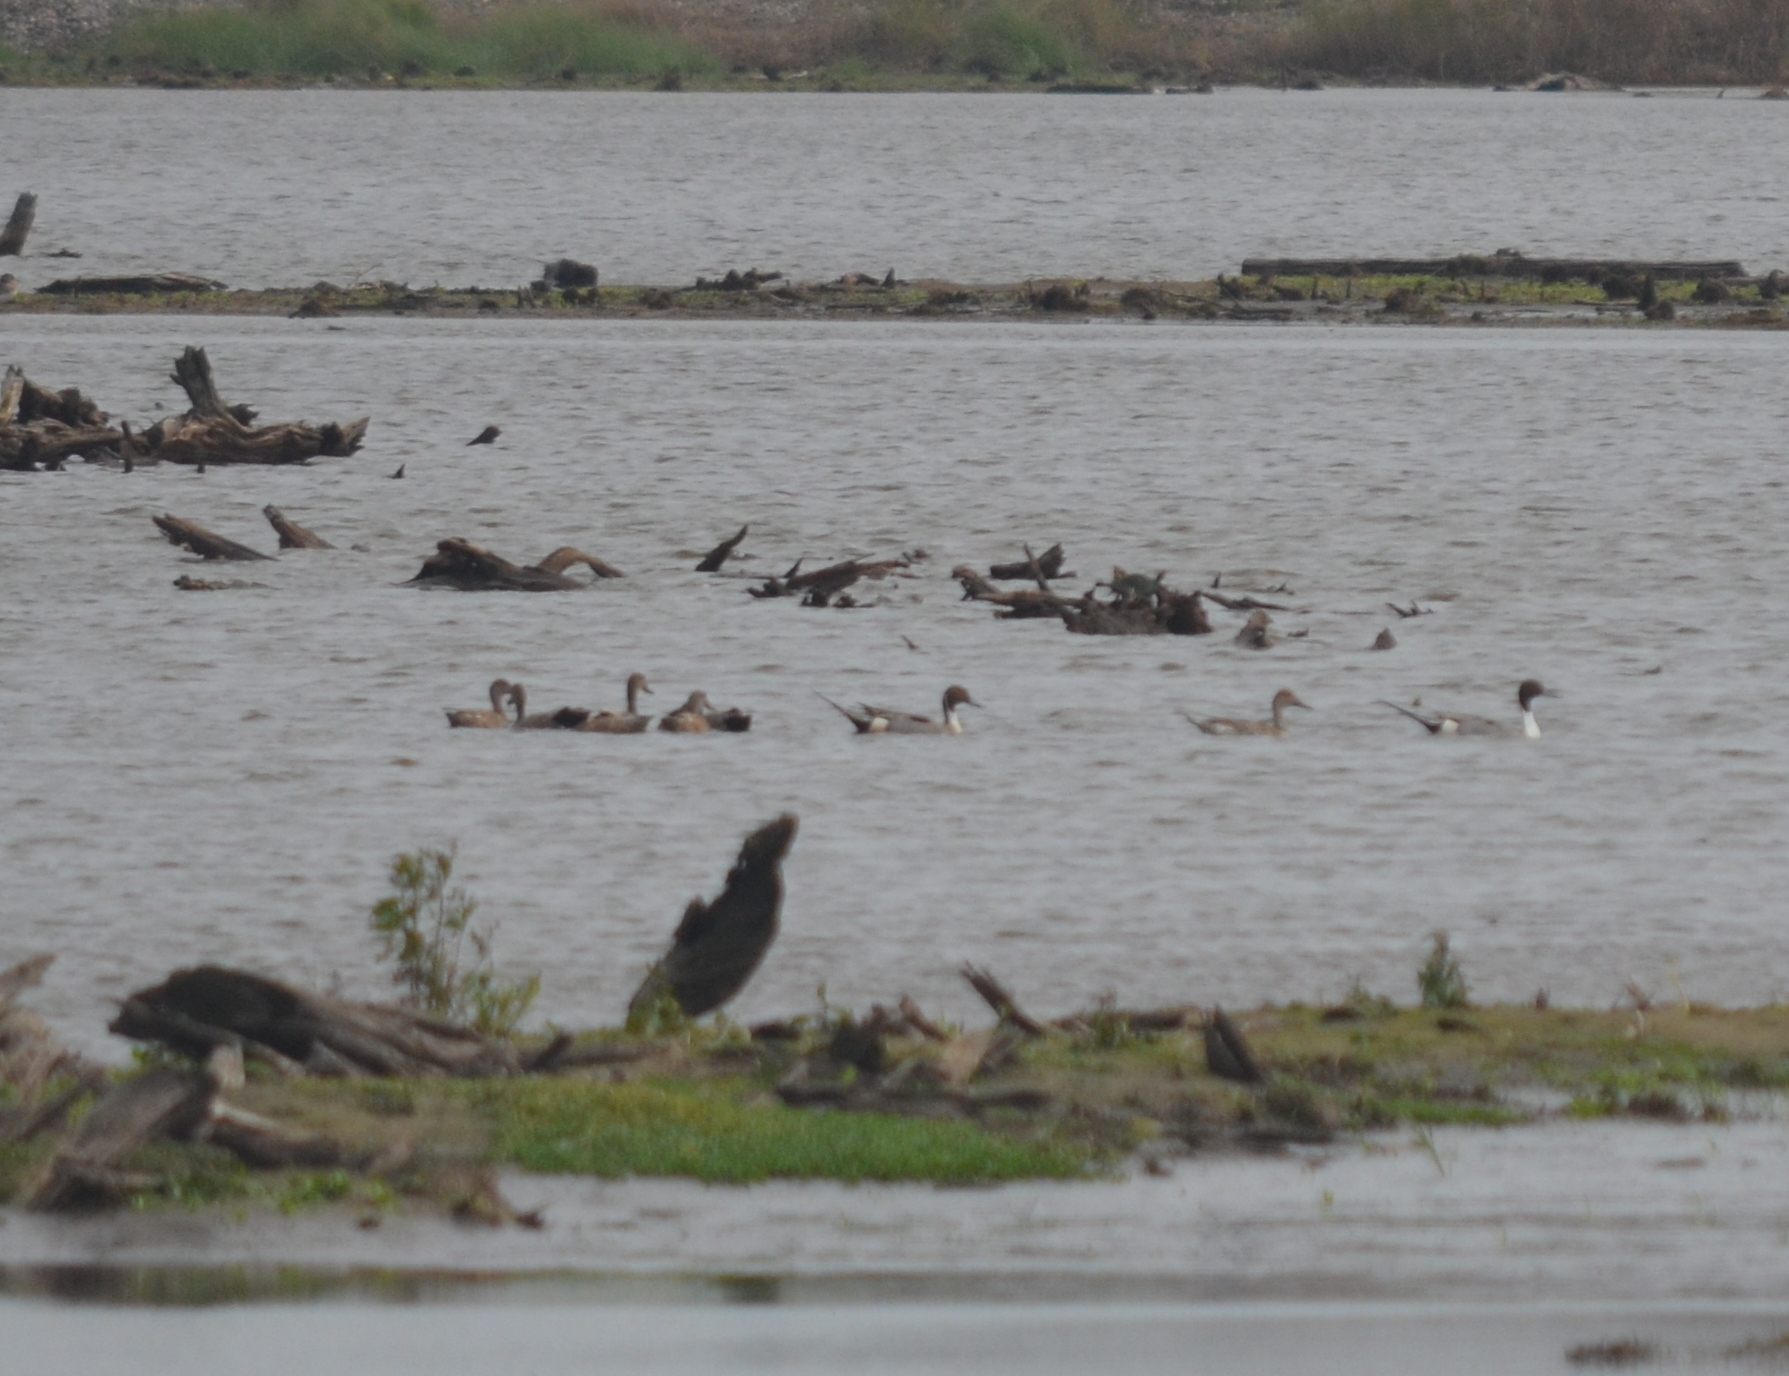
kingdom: Animalia
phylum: Chordata
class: Aves
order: Anseriformes
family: Anatidae
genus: Anas
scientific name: Anas acuta
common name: Northern pintail
